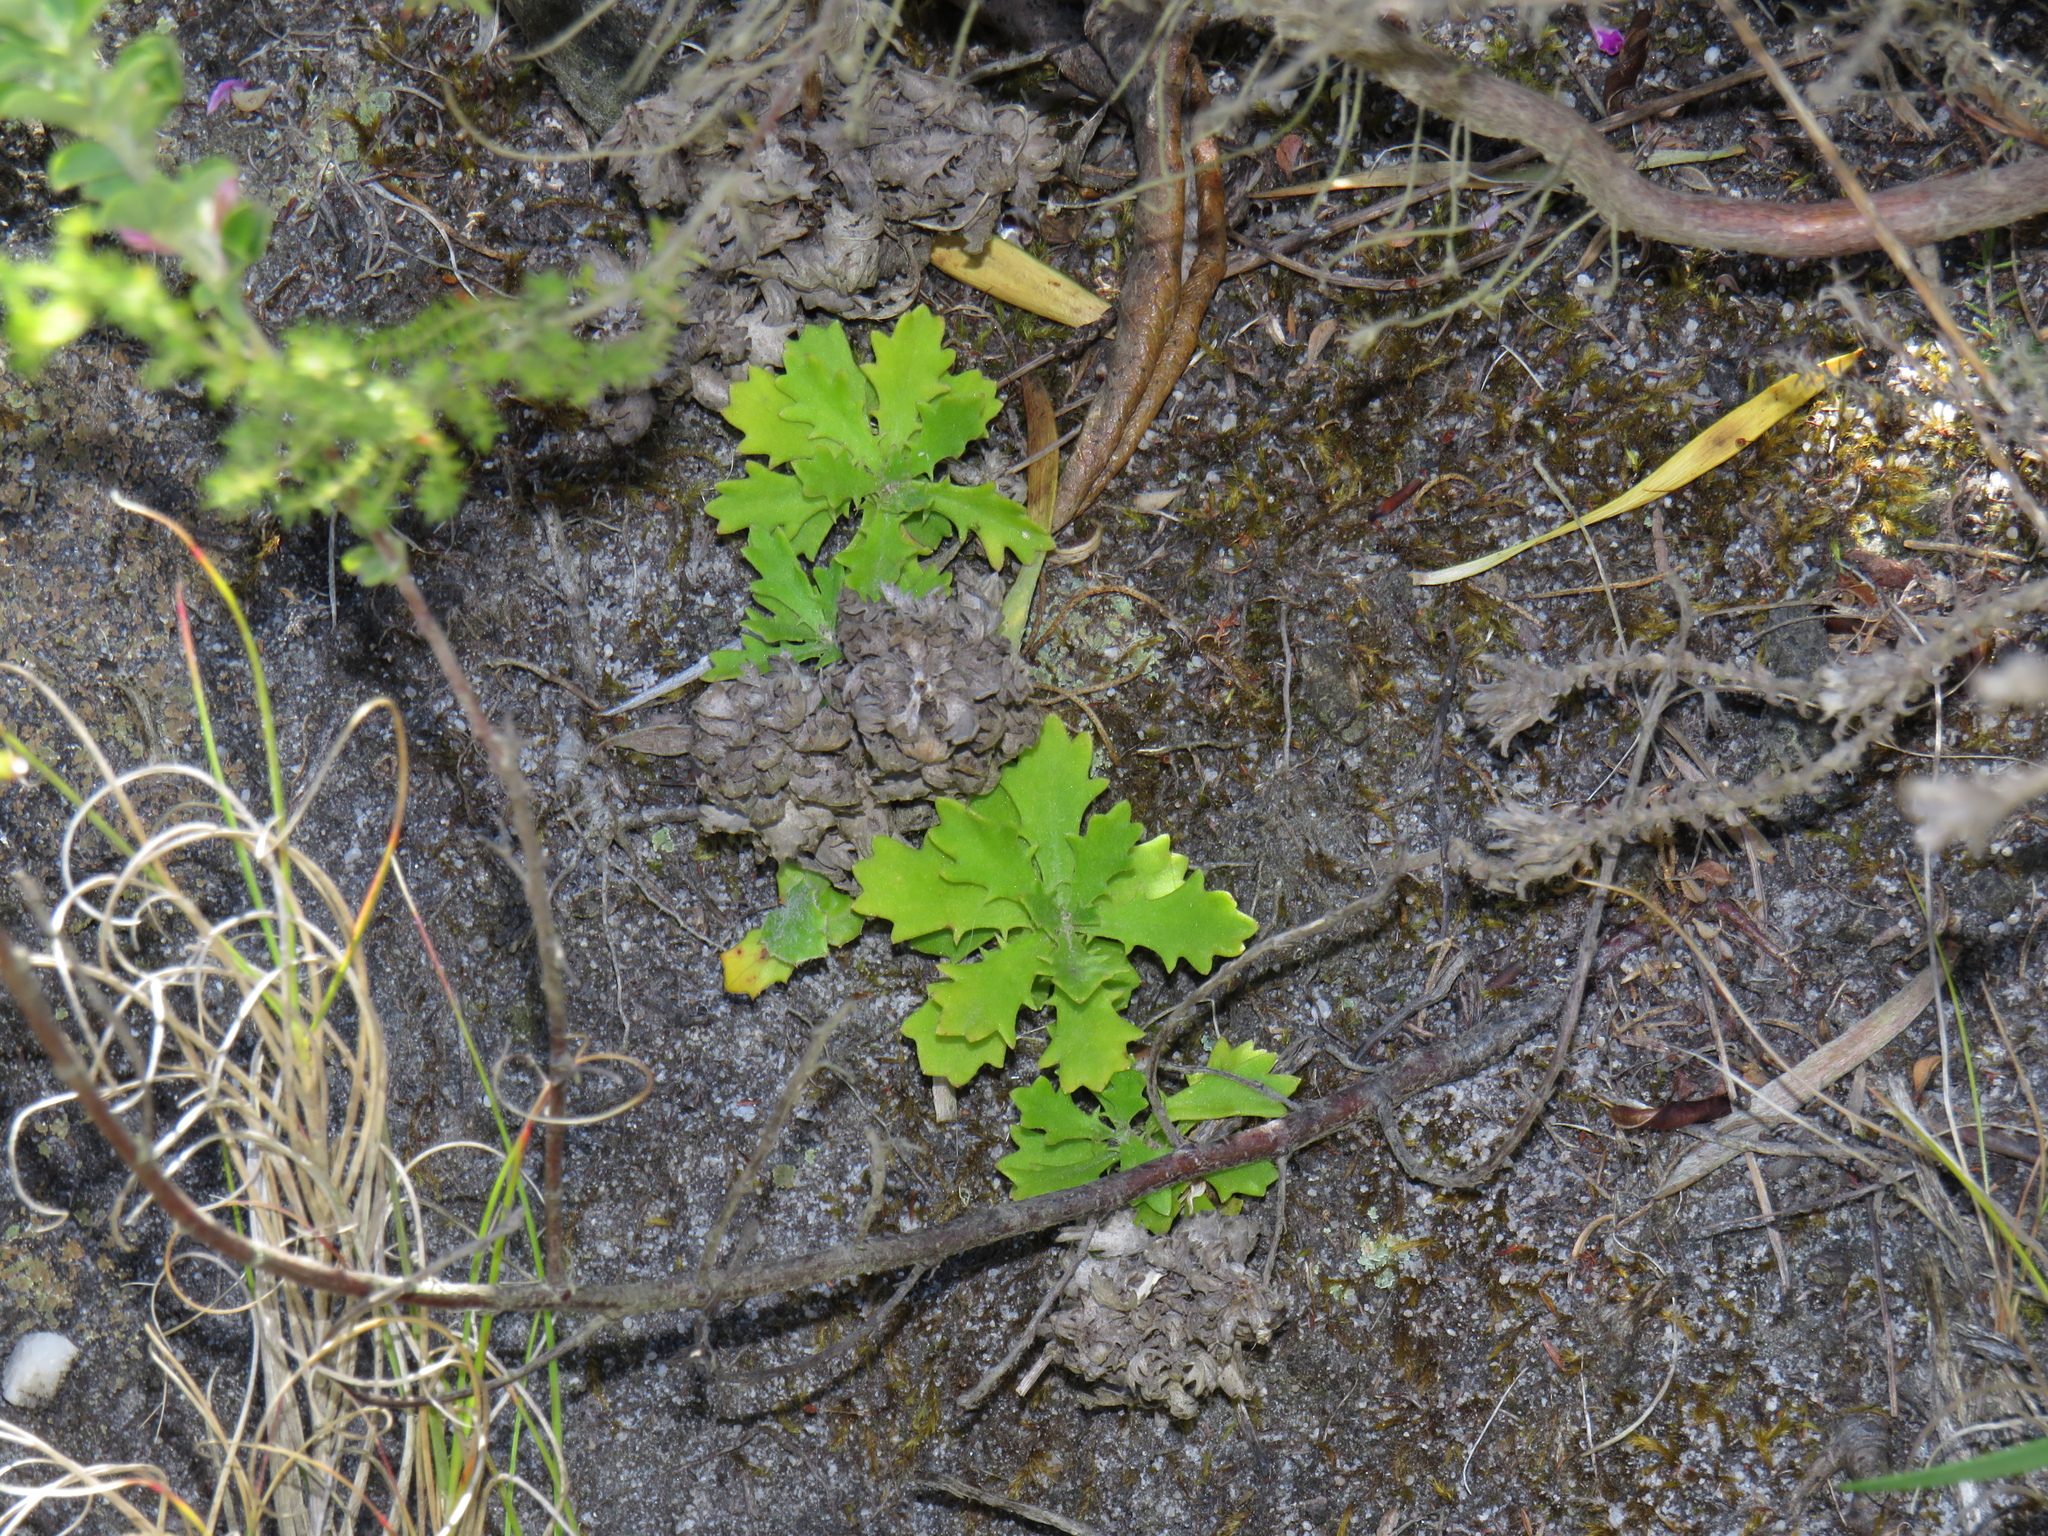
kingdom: Plantae
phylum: Tracheophyta
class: Magnoliopsida
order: Asterales
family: Asteraceae
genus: Osmitopsis
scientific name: Osmitopsis dentata
